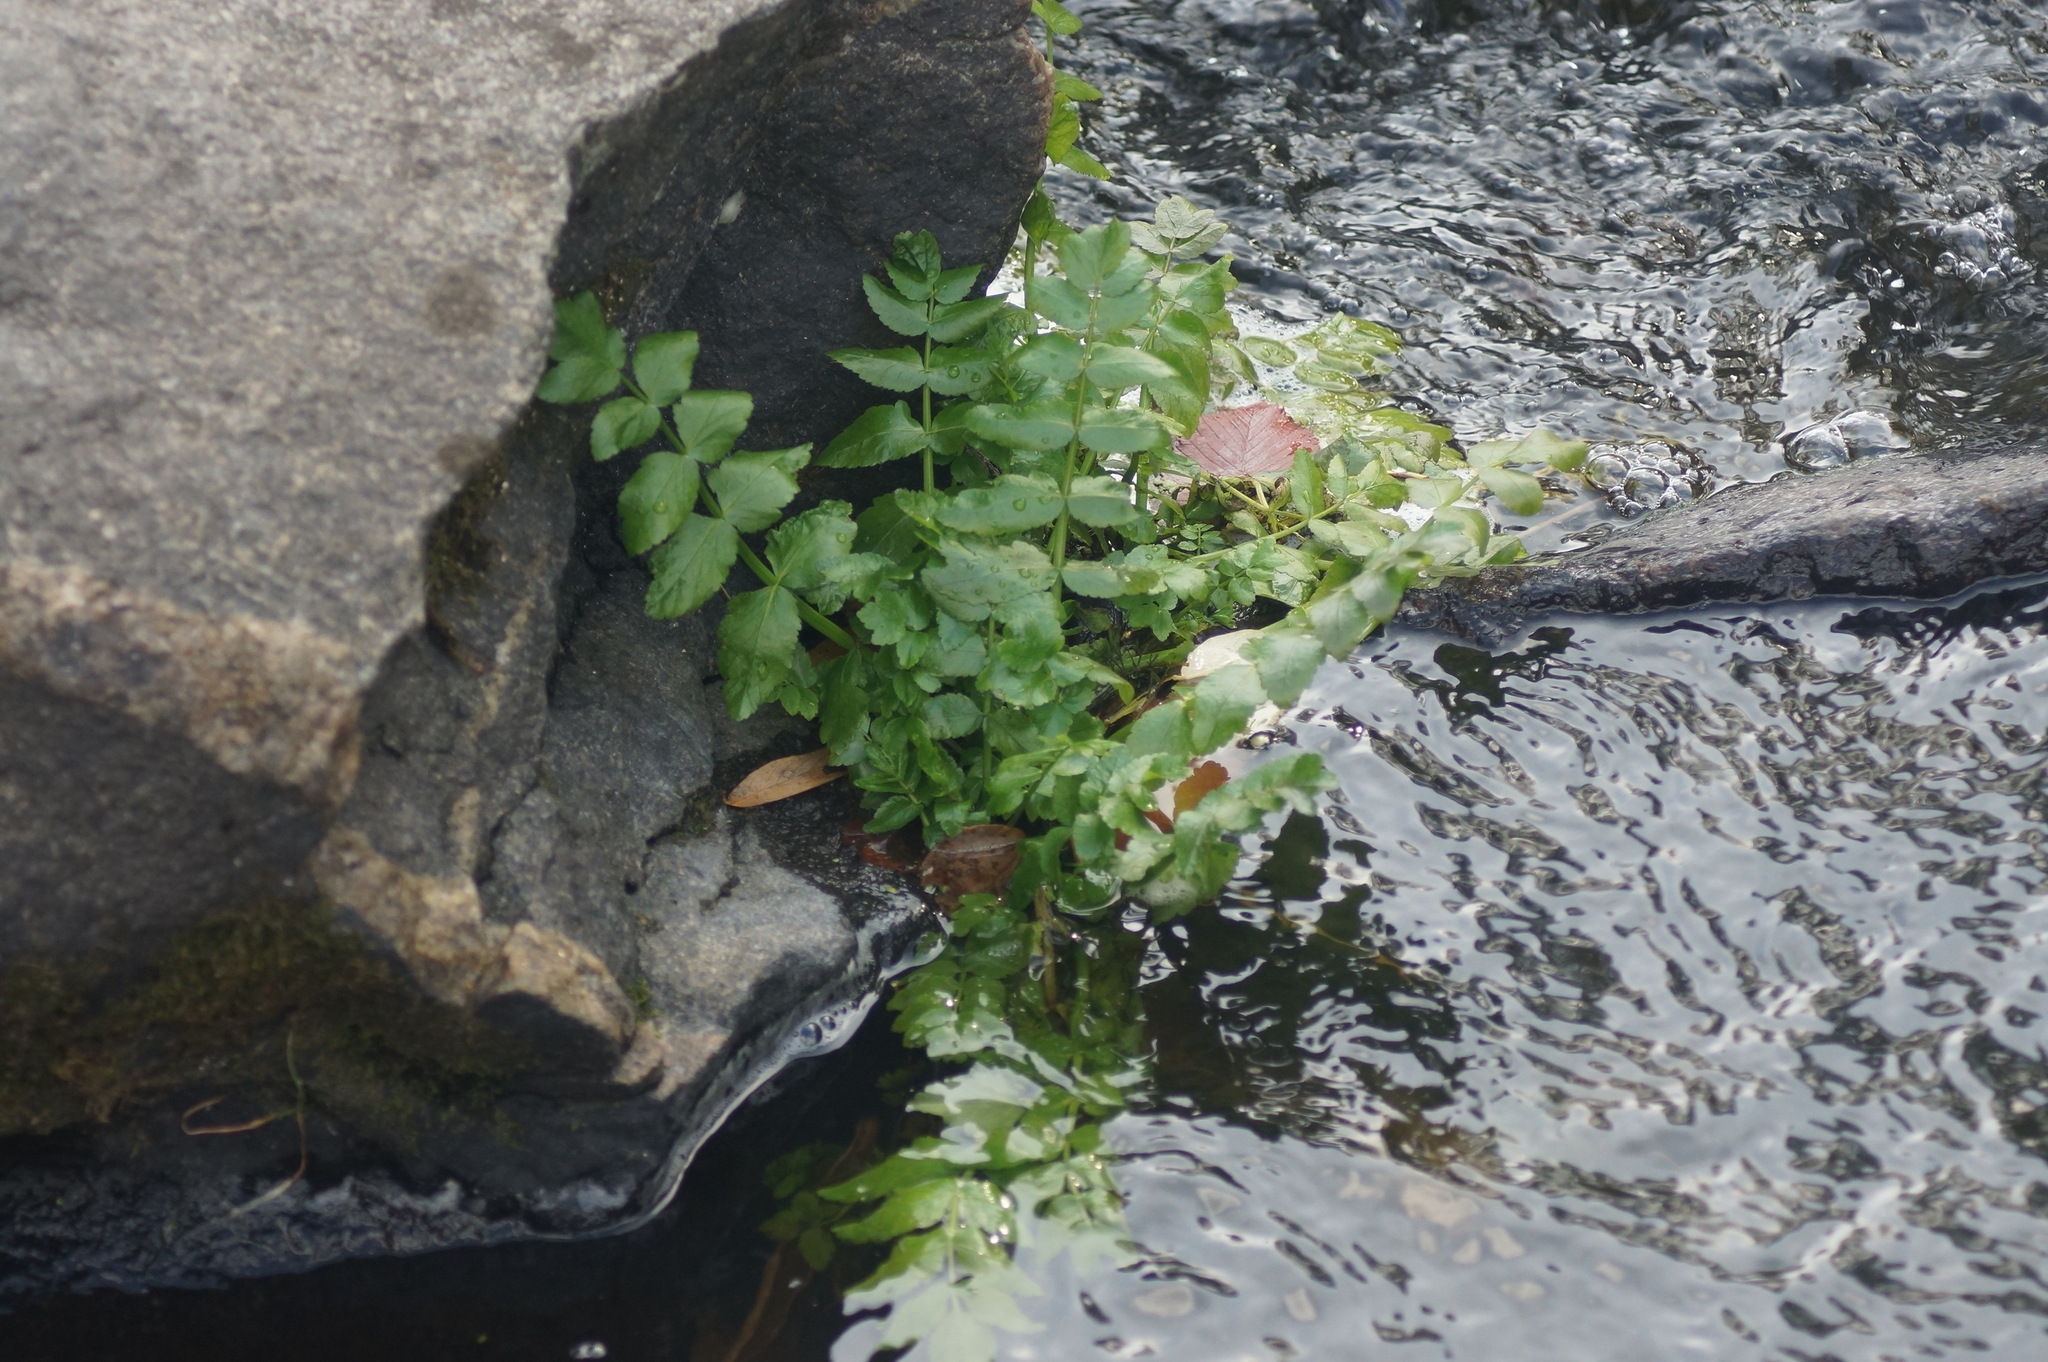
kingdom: Plantae
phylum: Tracheophyta
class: Magnoliopsida
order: Apiales
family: Apiaceae
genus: Berula
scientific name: Berula erecta
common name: Lesser water-parsnip
